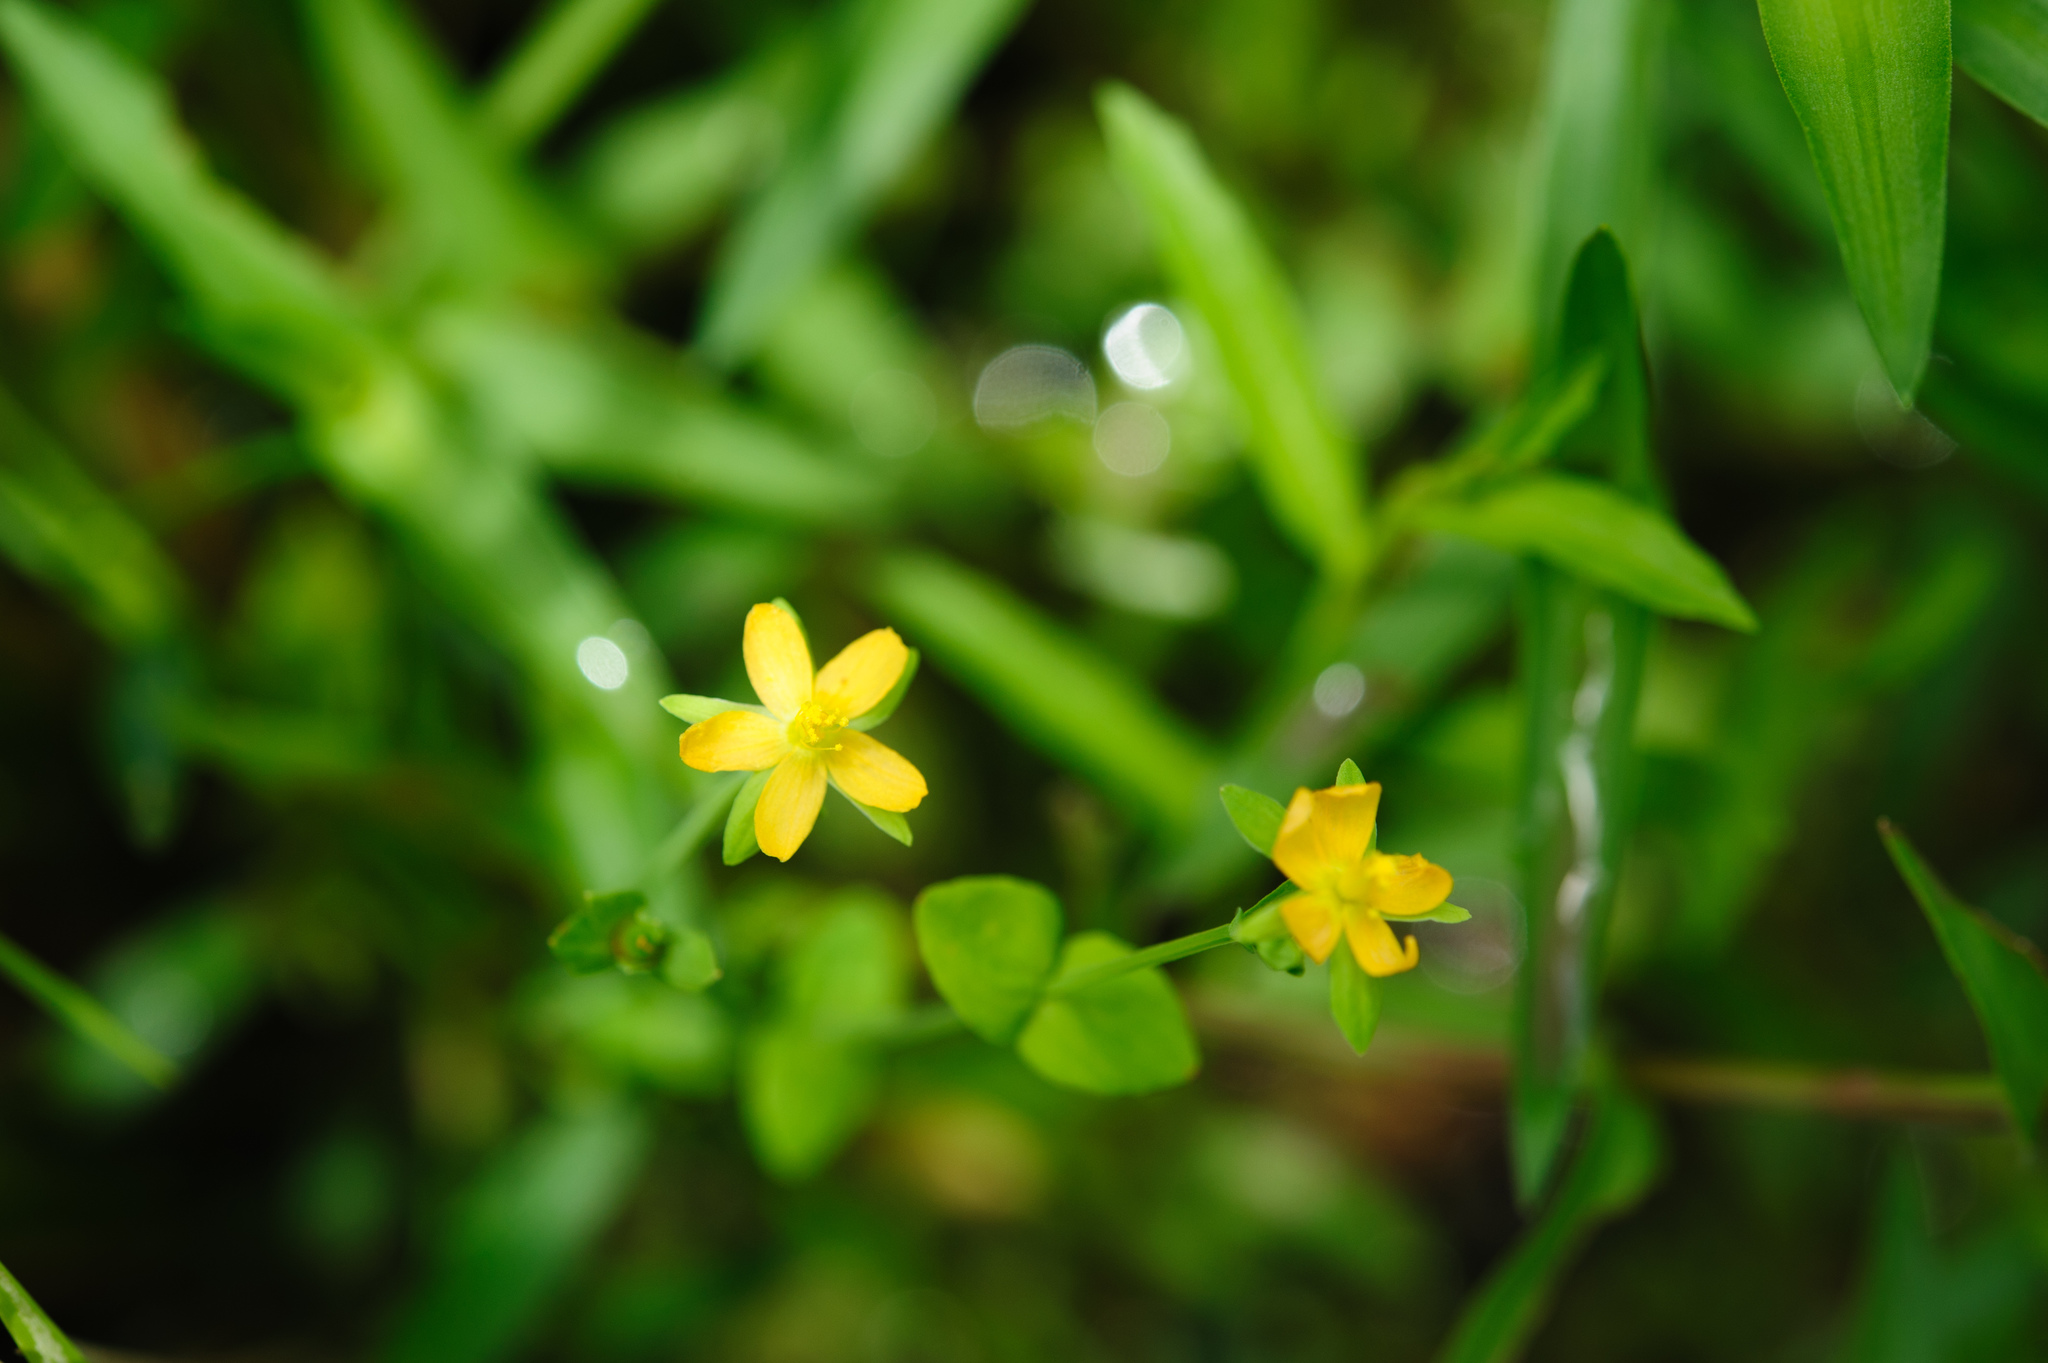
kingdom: Plantae
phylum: Tracheophyta
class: Magnoliopsida
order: Malpighiales
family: Hypericaceae
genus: Hypericum
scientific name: Hypericum japonicum
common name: Matted st. john's-wort
